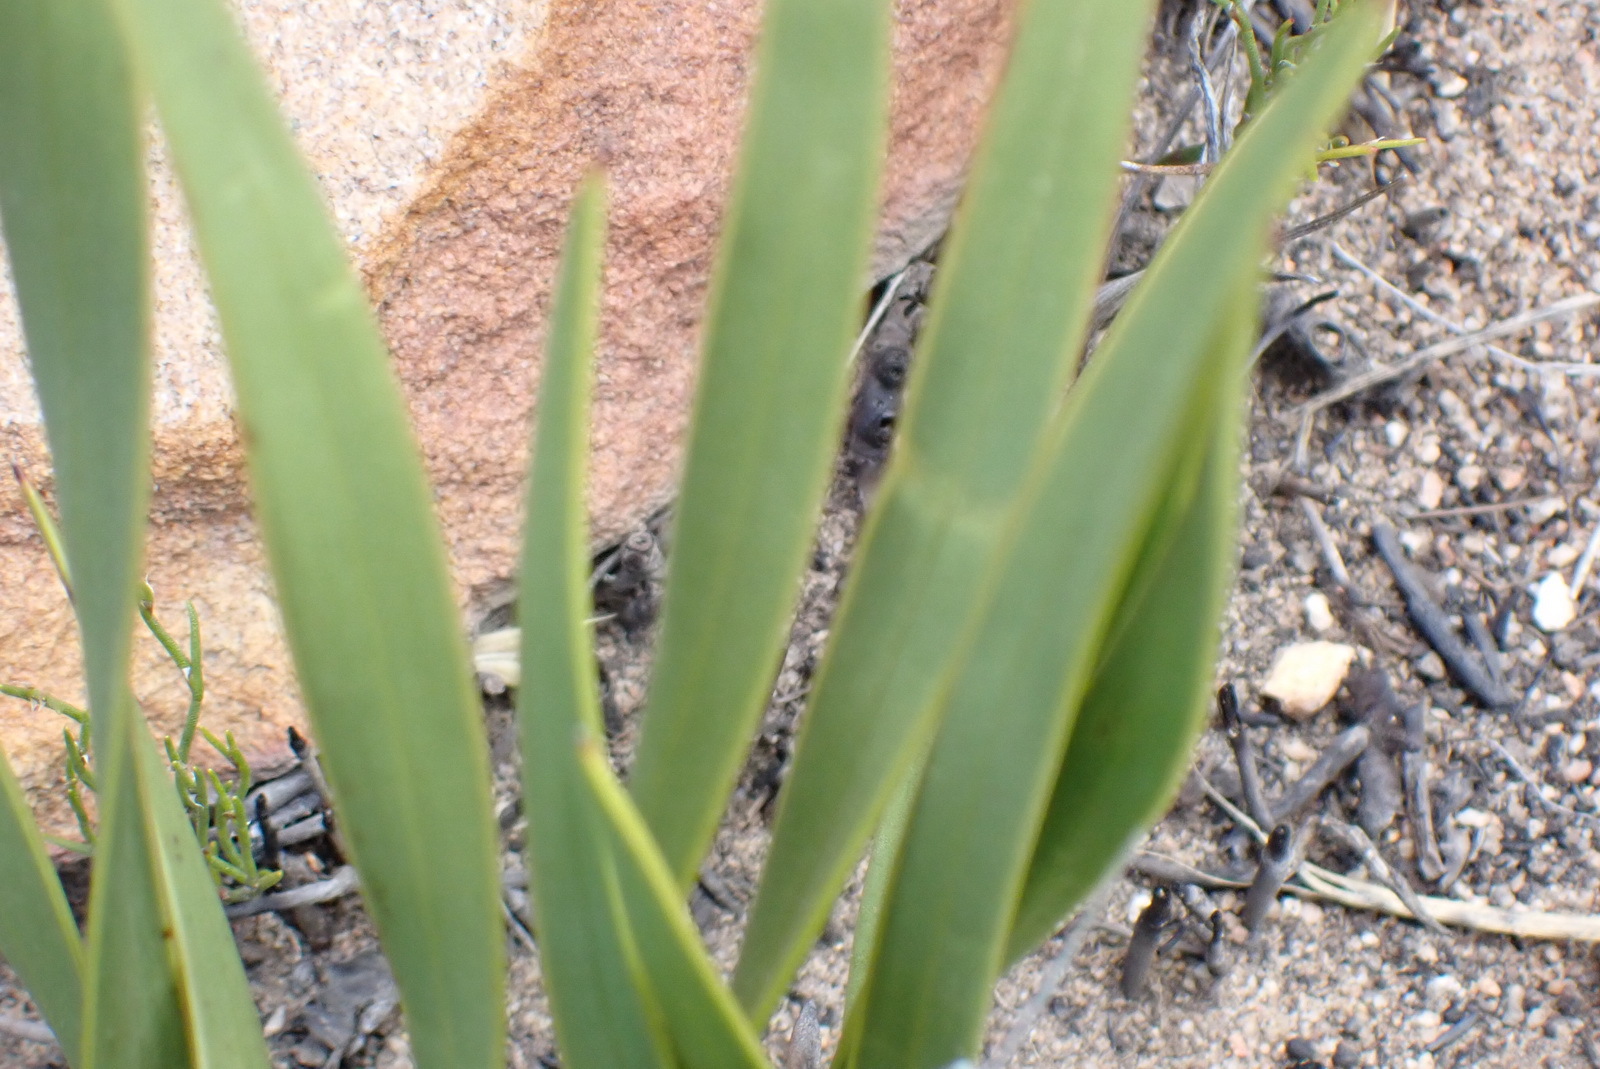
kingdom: Plantae
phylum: Tracheophyta
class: Magnoliopsida
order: Asterales
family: Asteraceae
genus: Corymbium
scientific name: Corymbium glabrum
